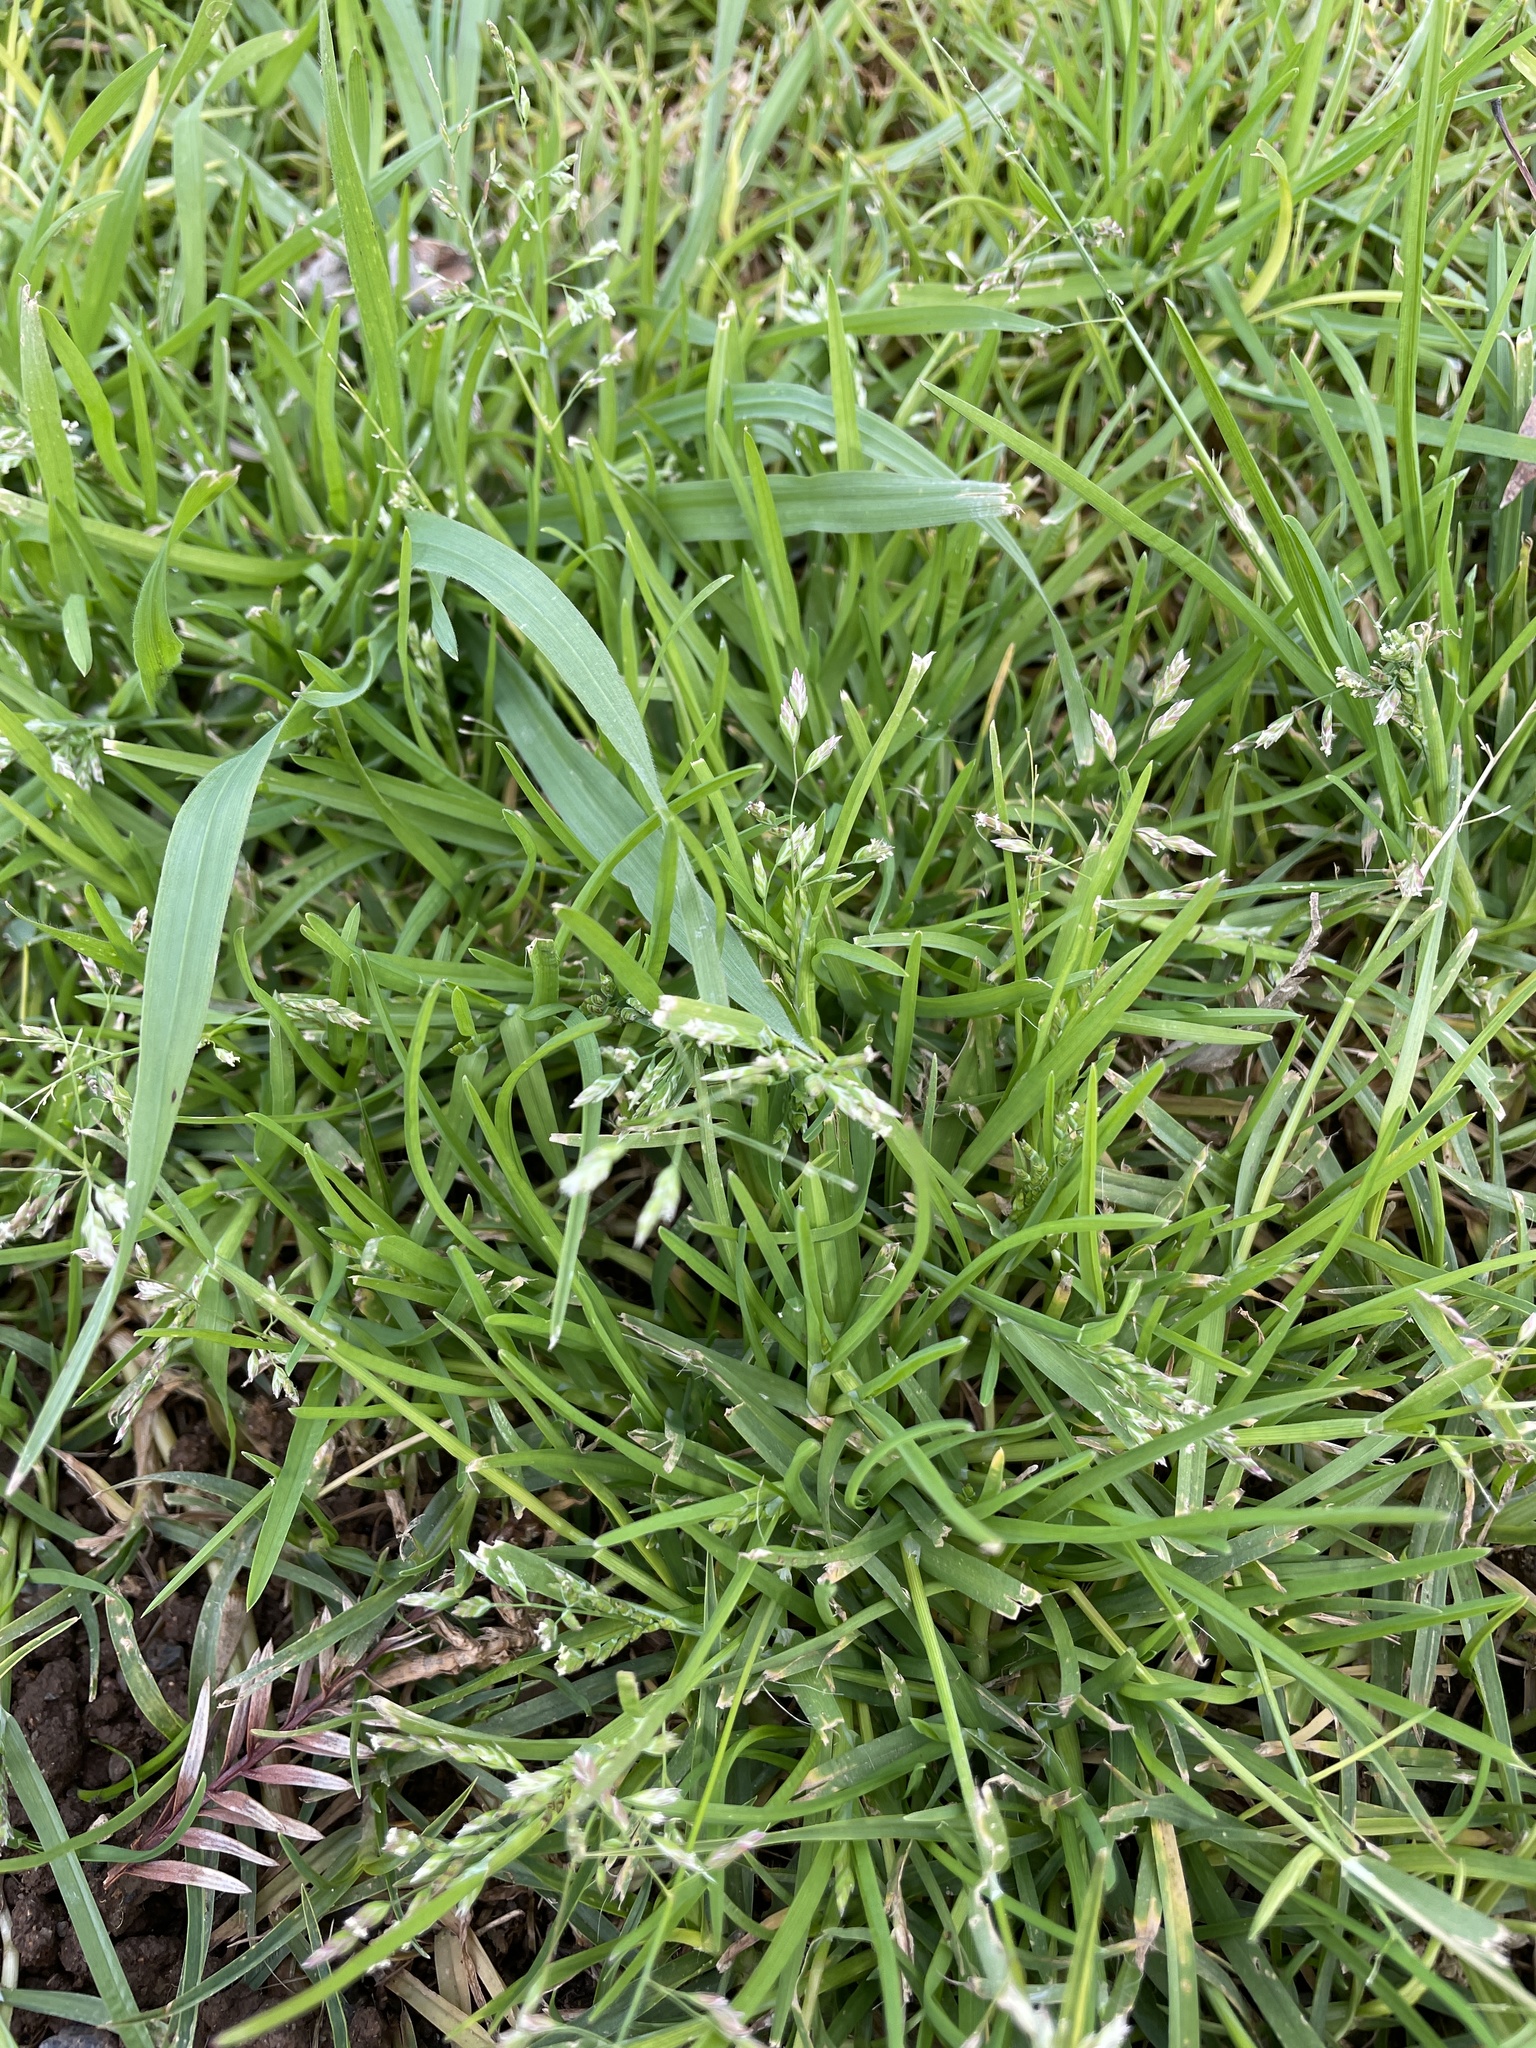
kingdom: Plantae
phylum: Tracheophyta
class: Liliopsida
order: Poales
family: Poaceae
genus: Poa
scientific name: Poa annua
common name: Annual bluegrass
